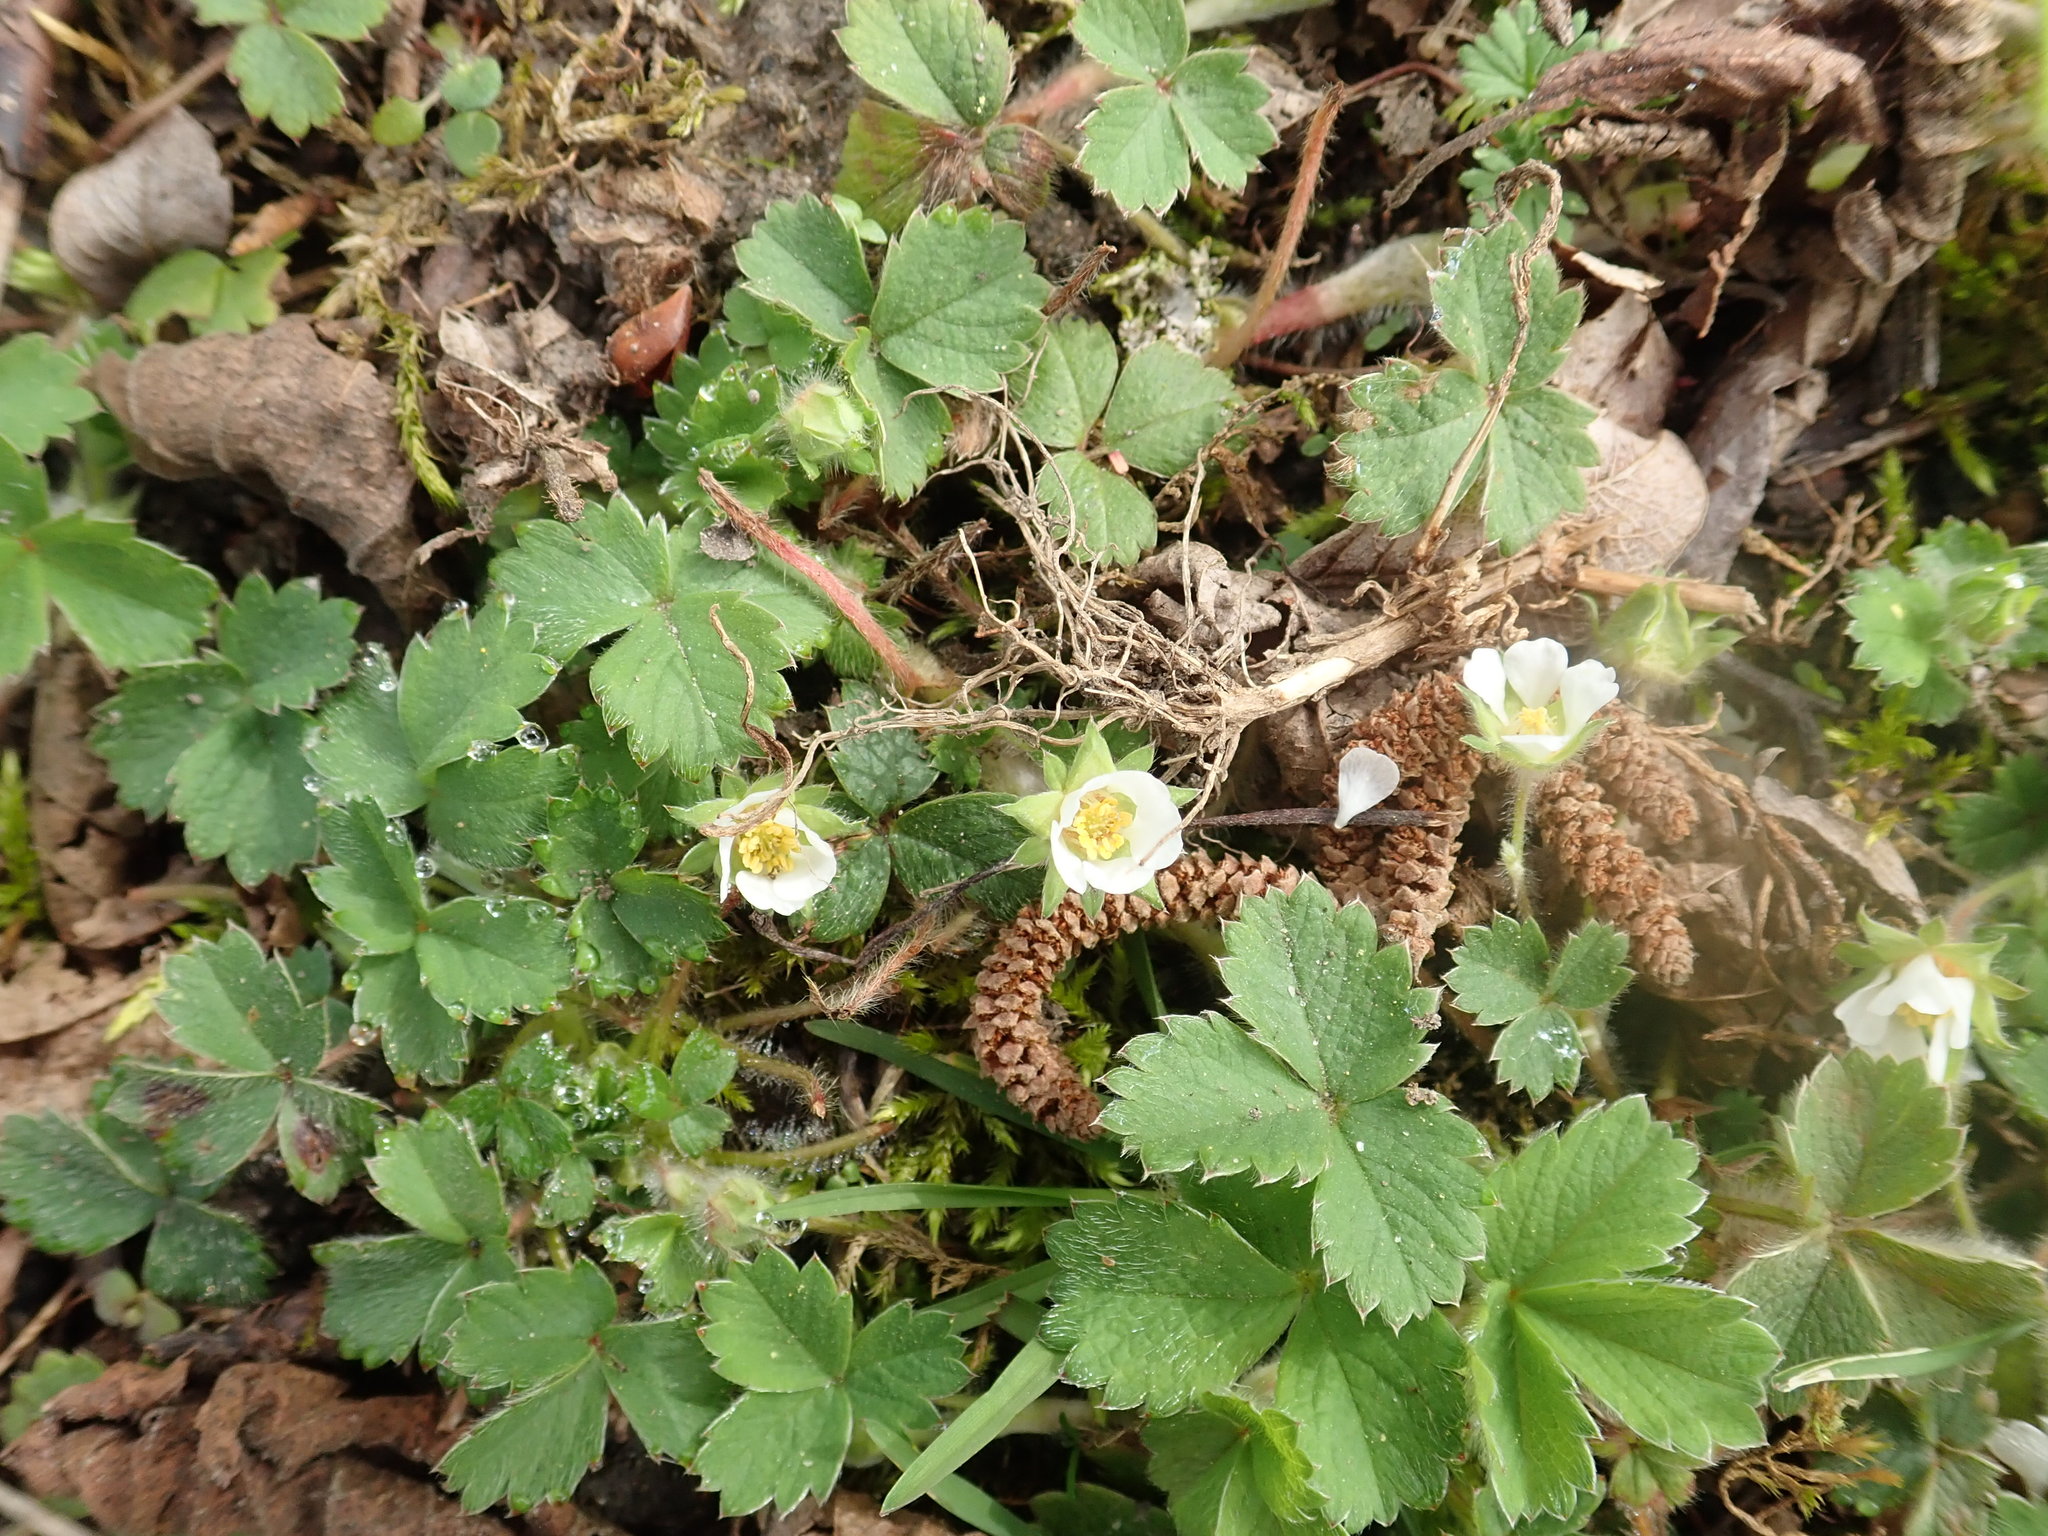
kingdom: Plantae
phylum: Tracheophyta
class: Magnoliopsida
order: Rosales
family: Rosaceae
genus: Potentilla
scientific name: Potentilla sterilis
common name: Barren strawberry
